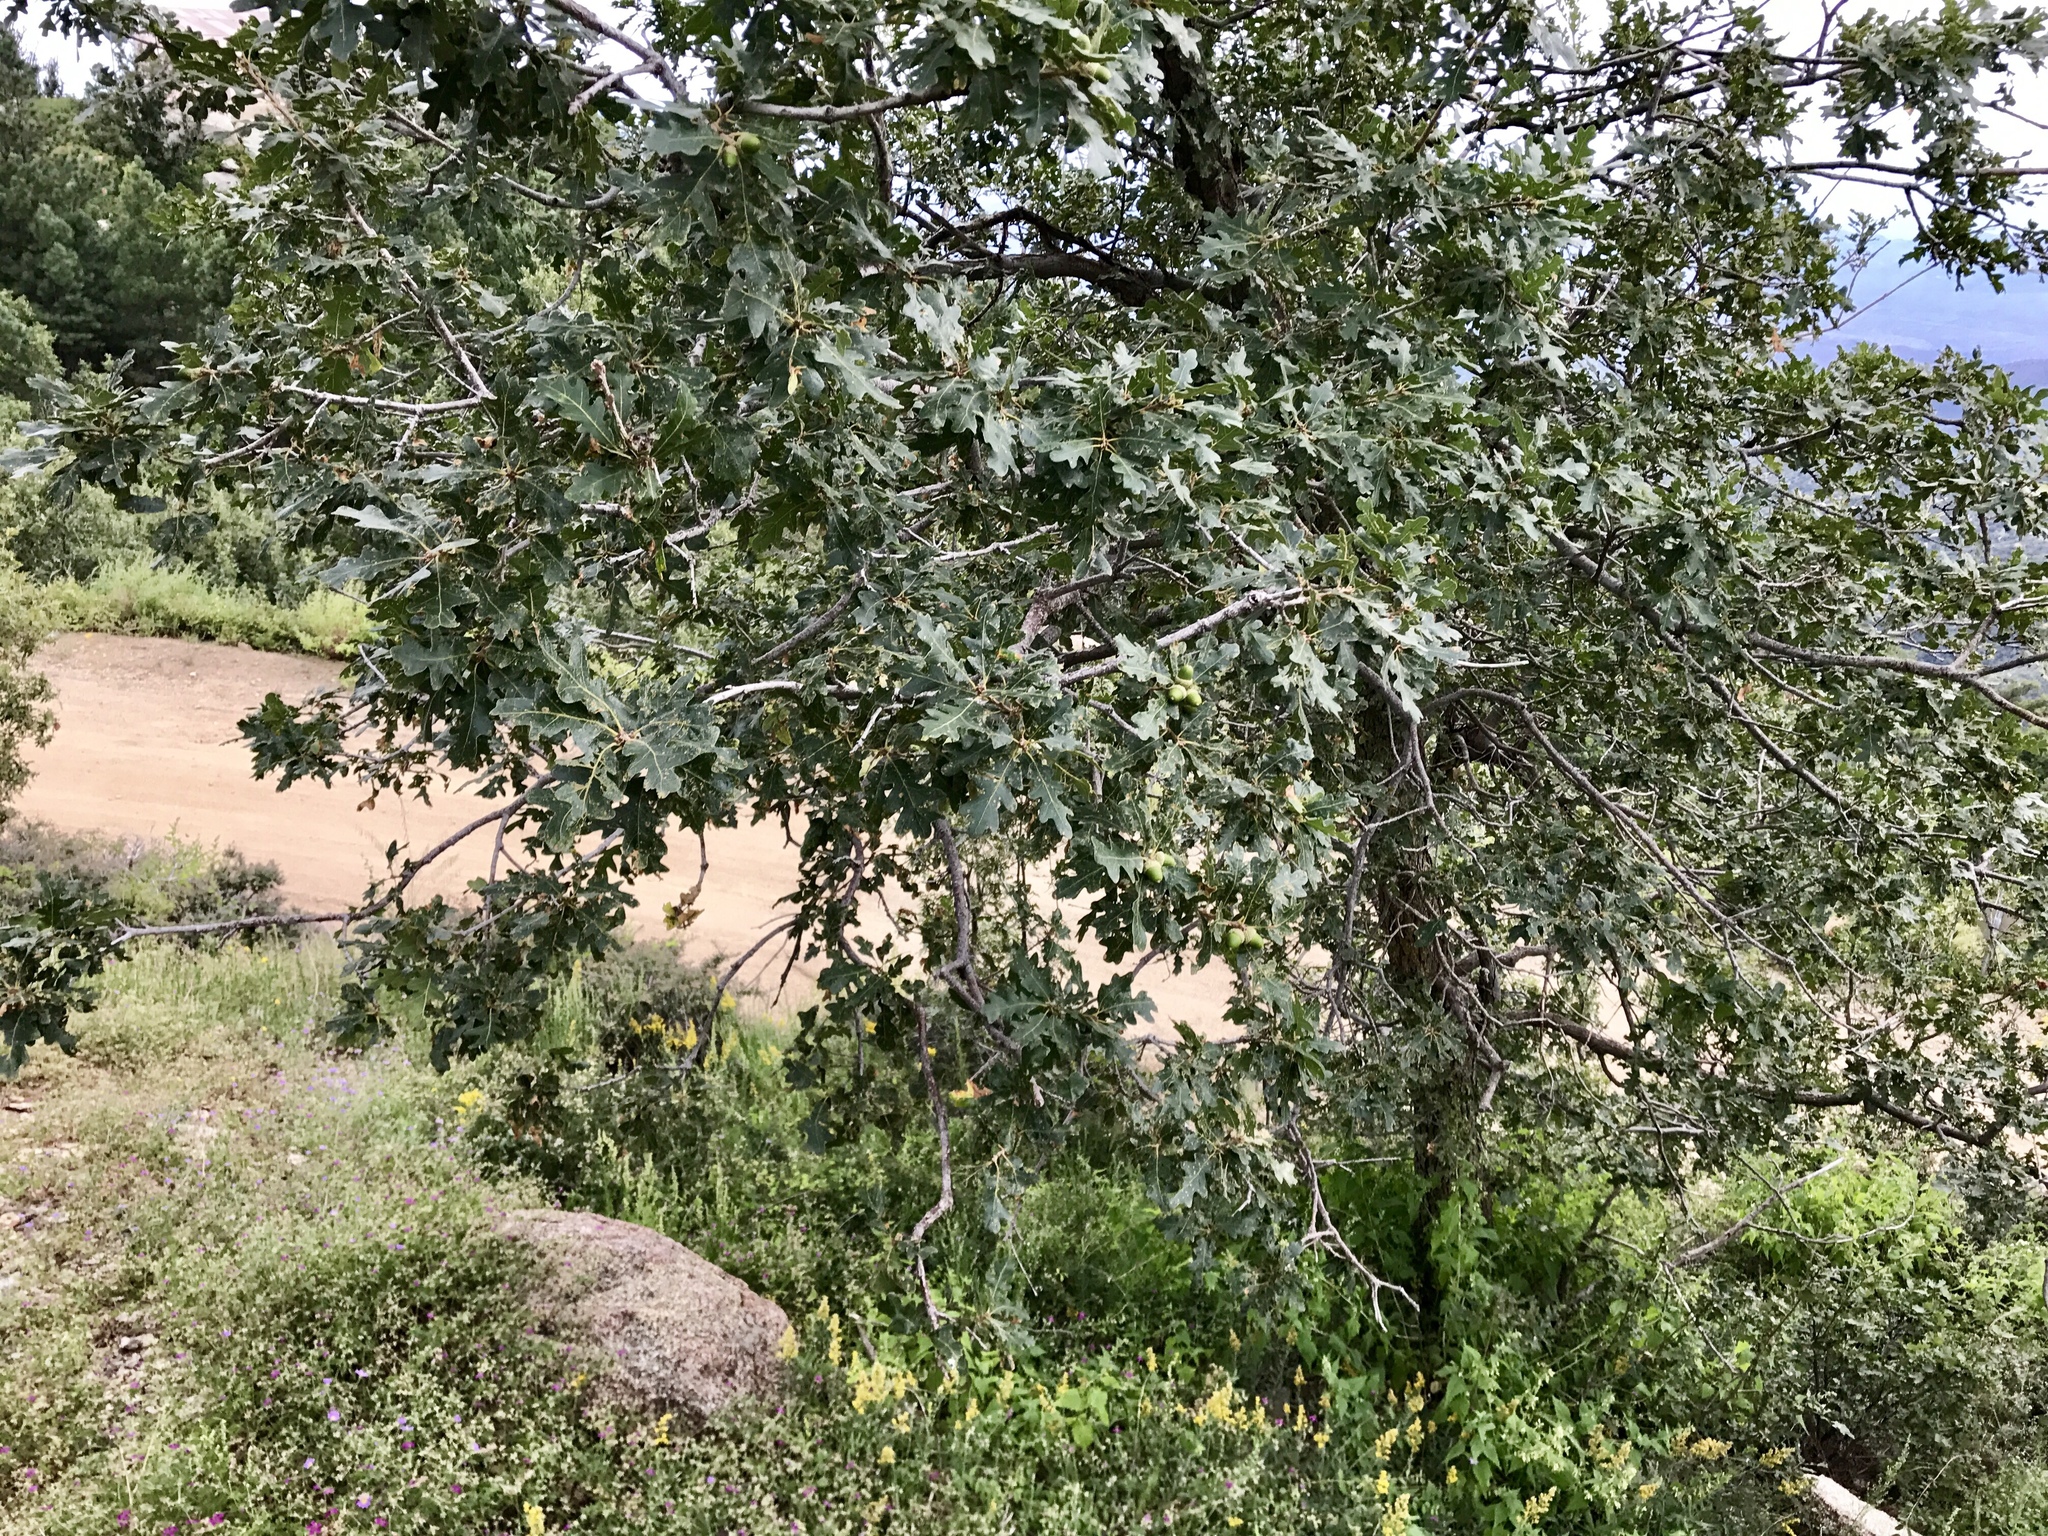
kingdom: Plantae
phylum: Tracheophyta
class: Magnoliopsida
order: Fagales
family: Fagaceae
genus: Quercus
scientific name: Quercus gambelii
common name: Gambel oak
